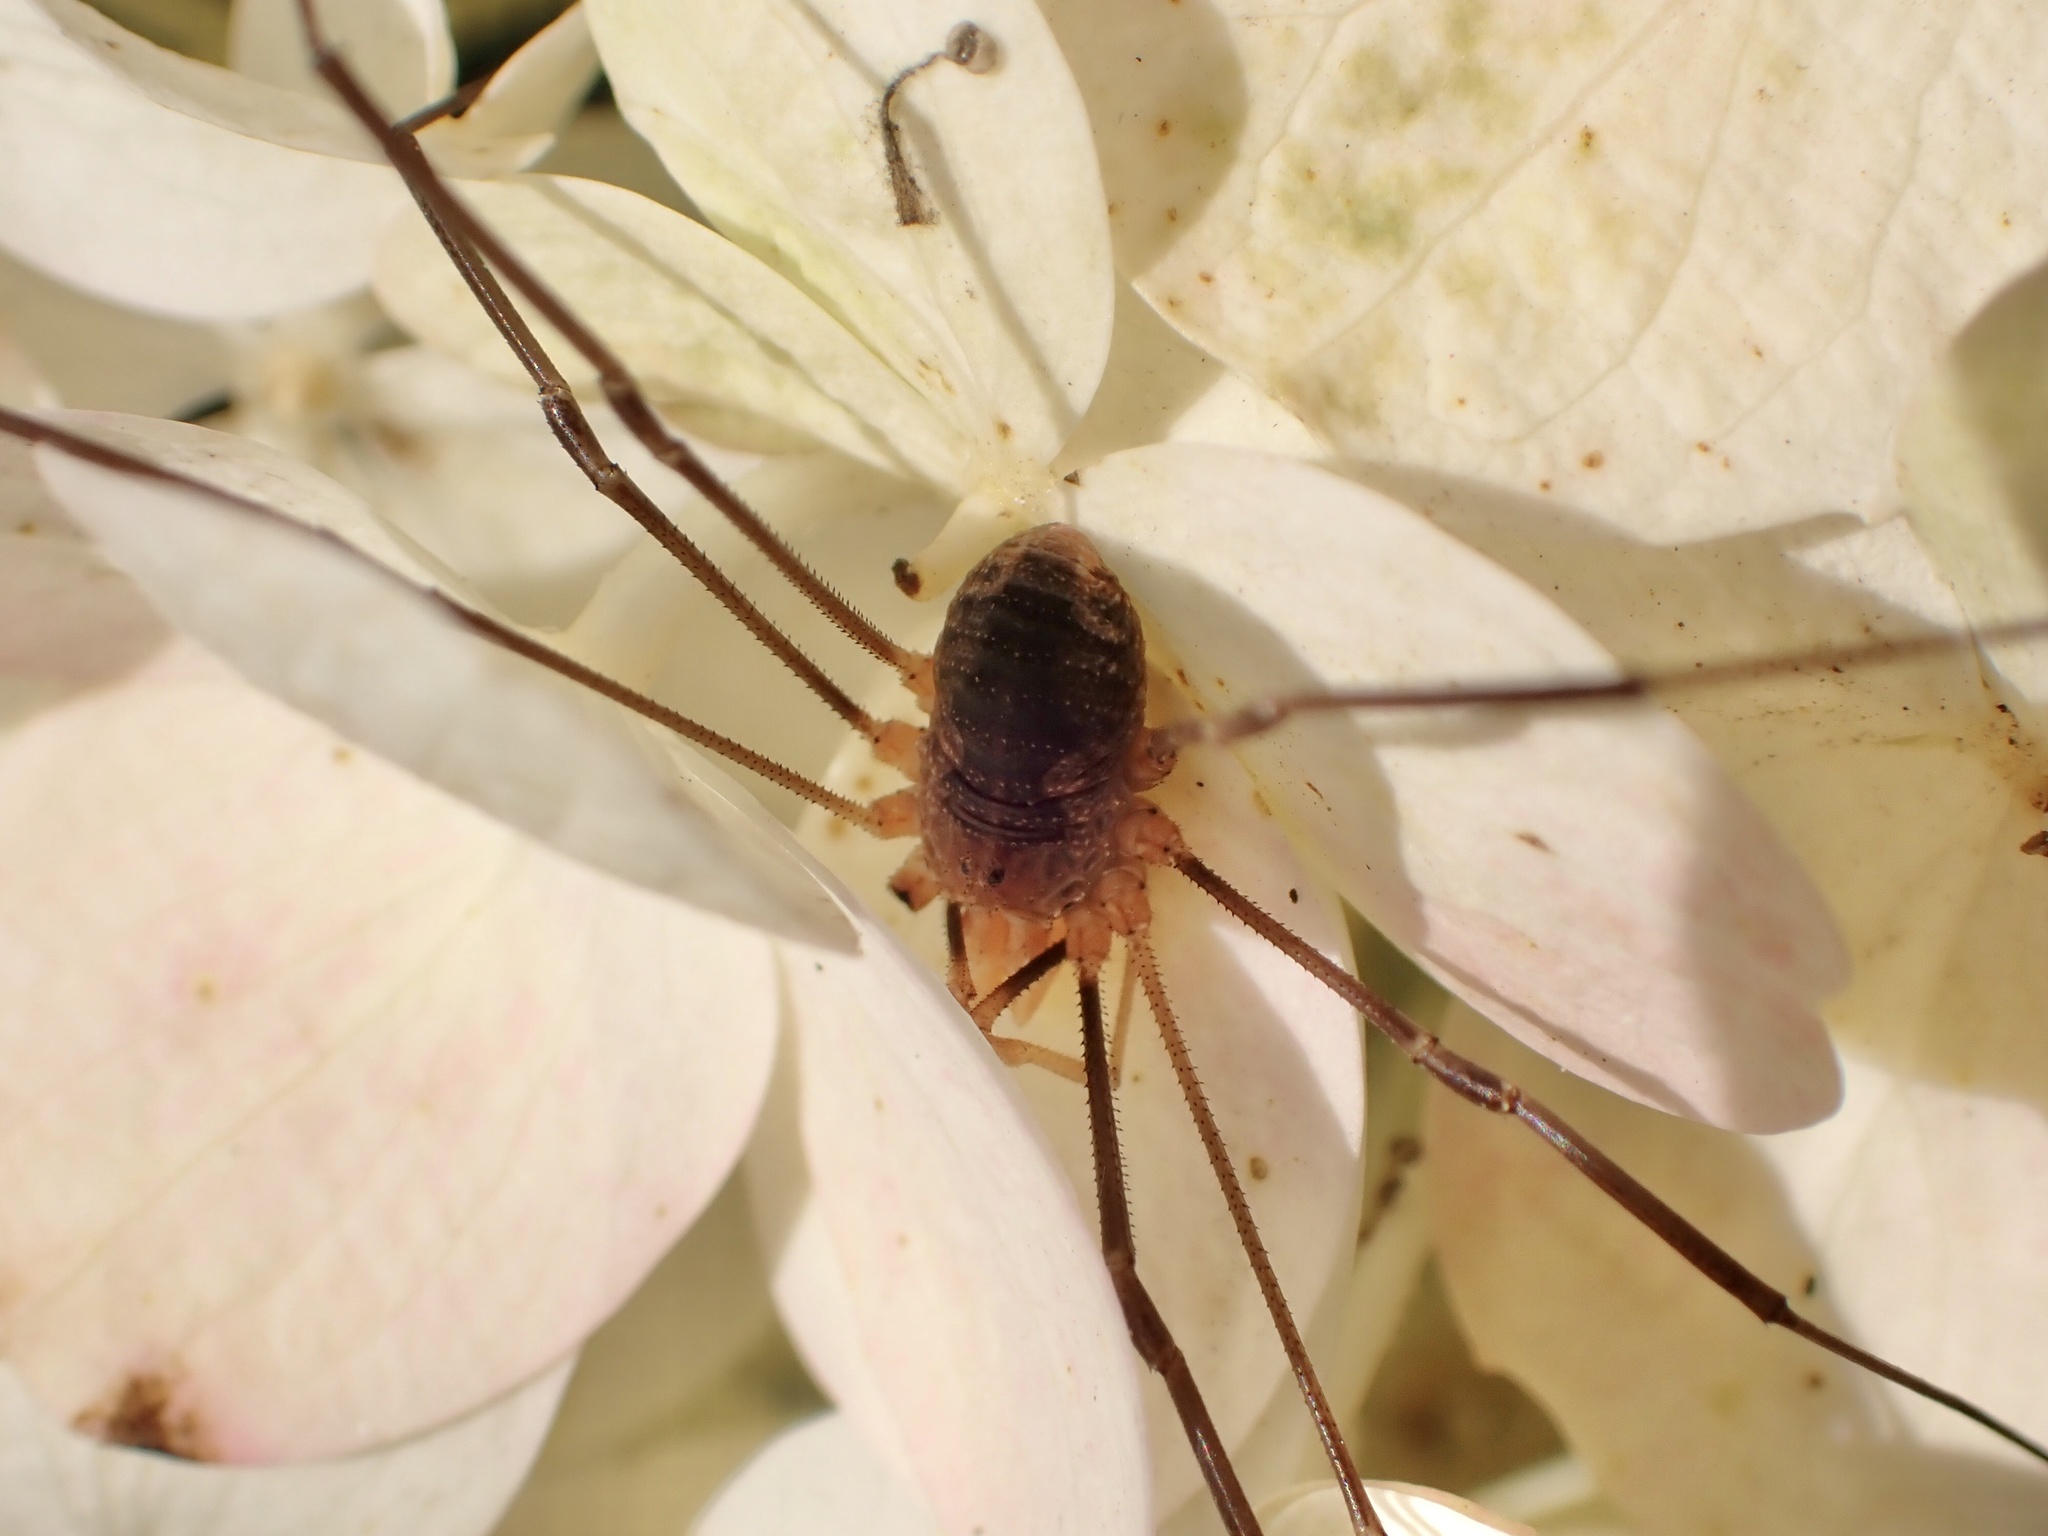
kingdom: Animalia
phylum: Arthropoda
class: Arachnida
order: Opiliones
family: Phalangiidae
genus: Phalangium
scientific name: Phalangium opilio
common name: Daddy longleg
